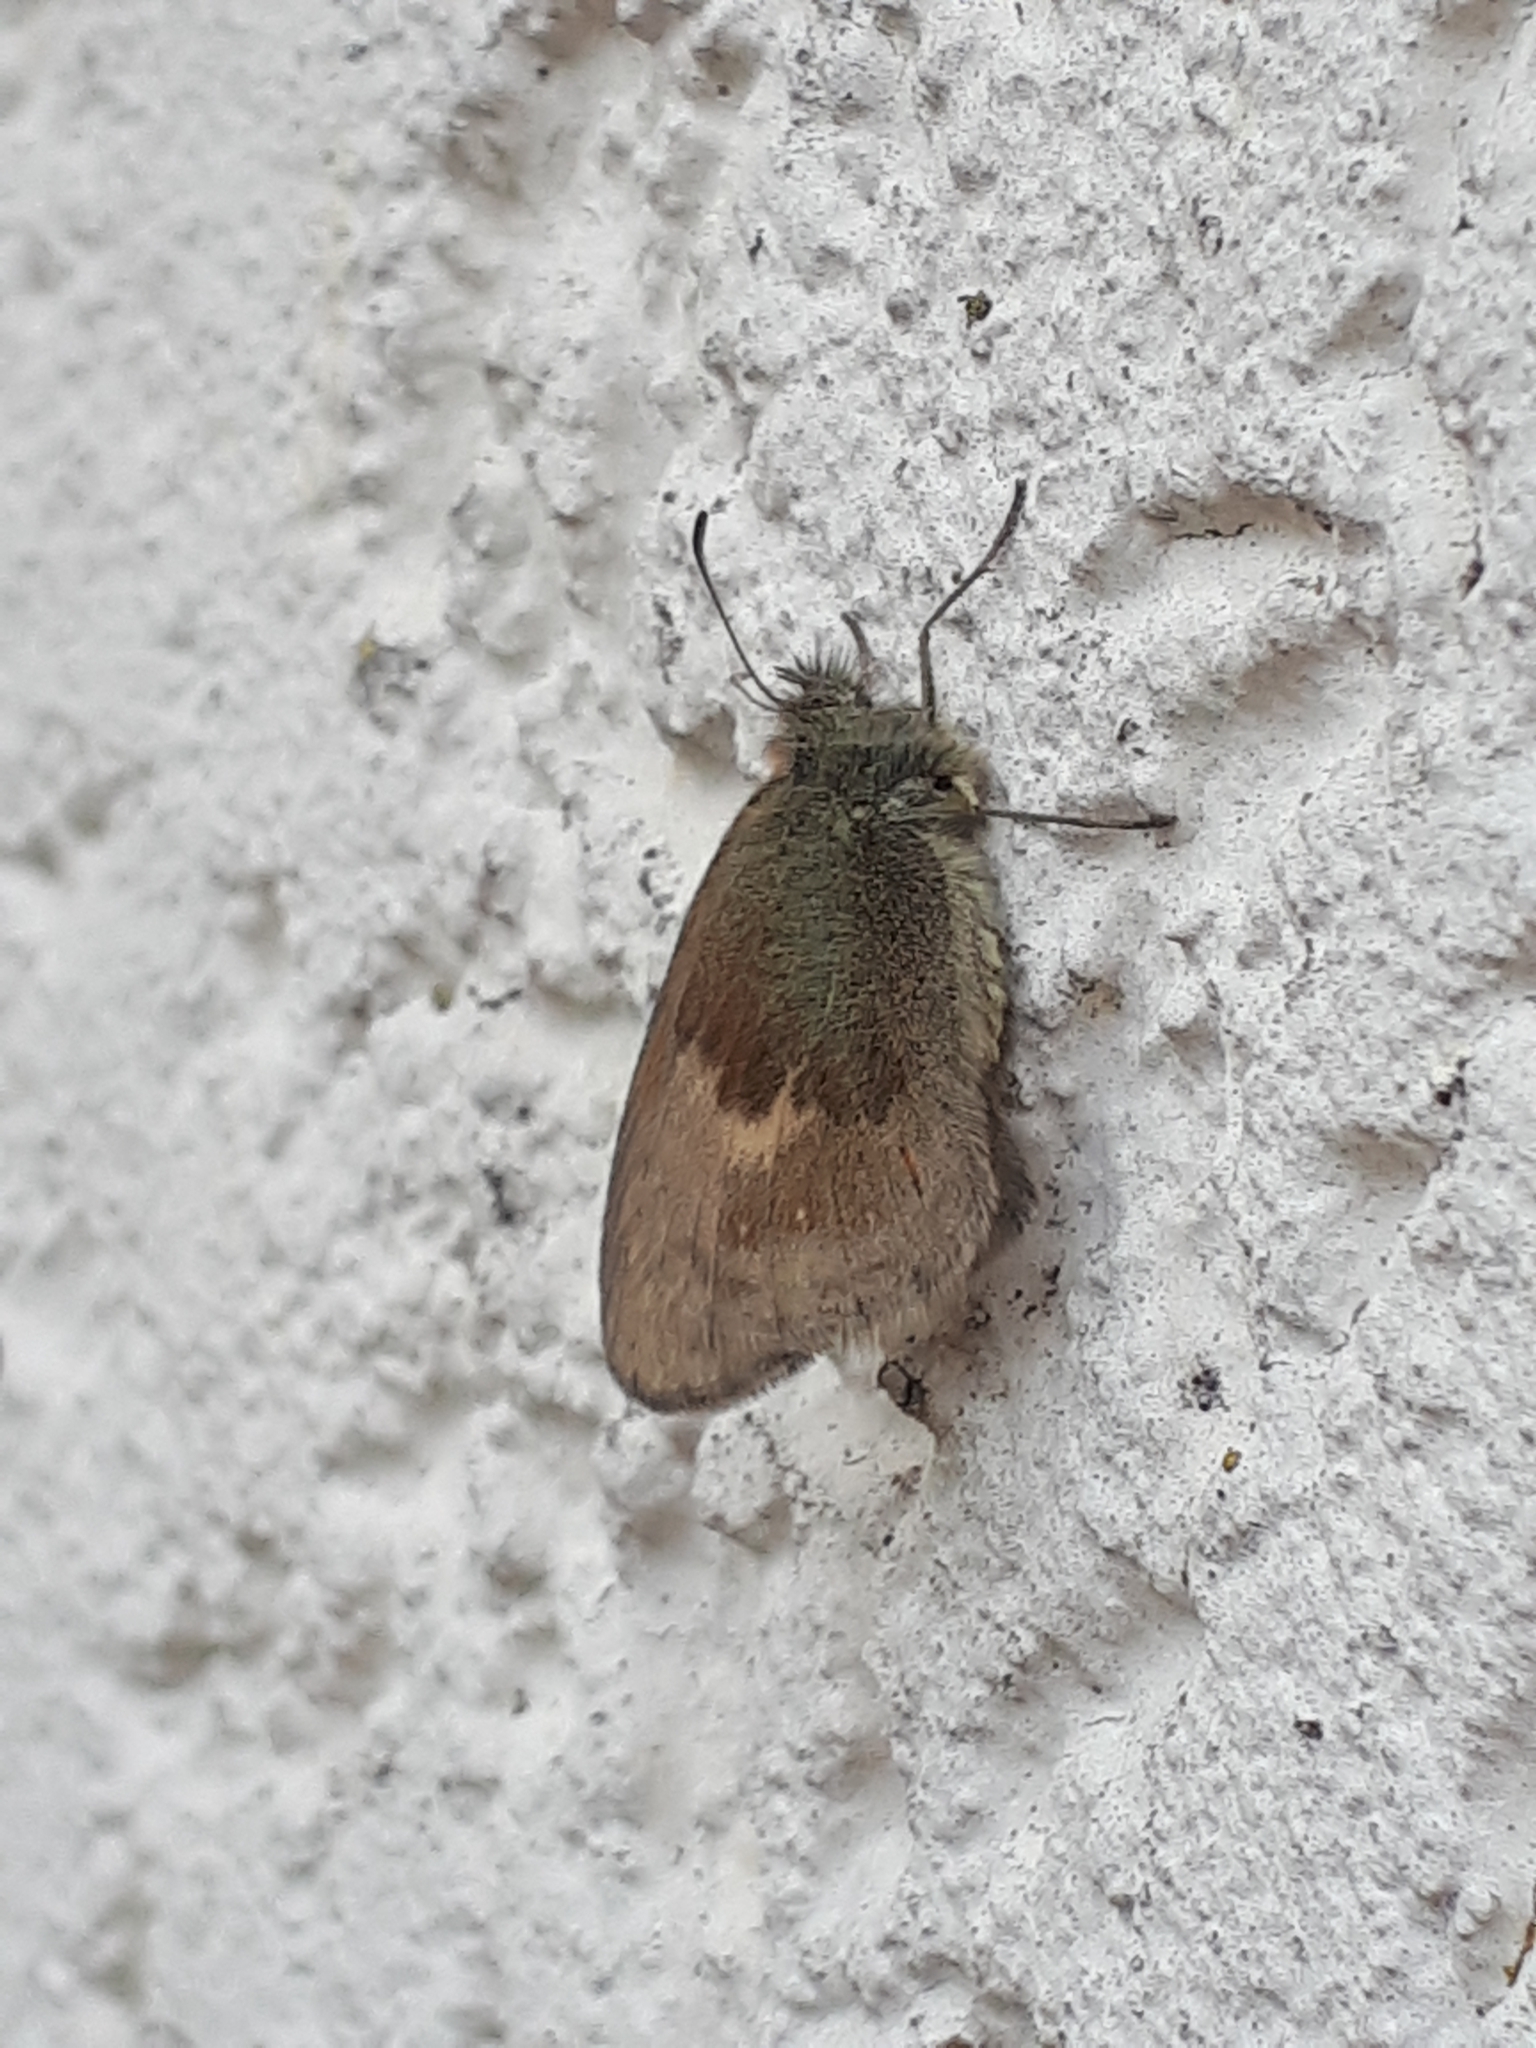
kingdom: Animalia
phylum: Arthropoda
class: Insecta
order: Lepidoptera
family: Nymphalidae
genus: Coenonympha
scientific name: Coenonympha pamphilus
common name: Small heath
